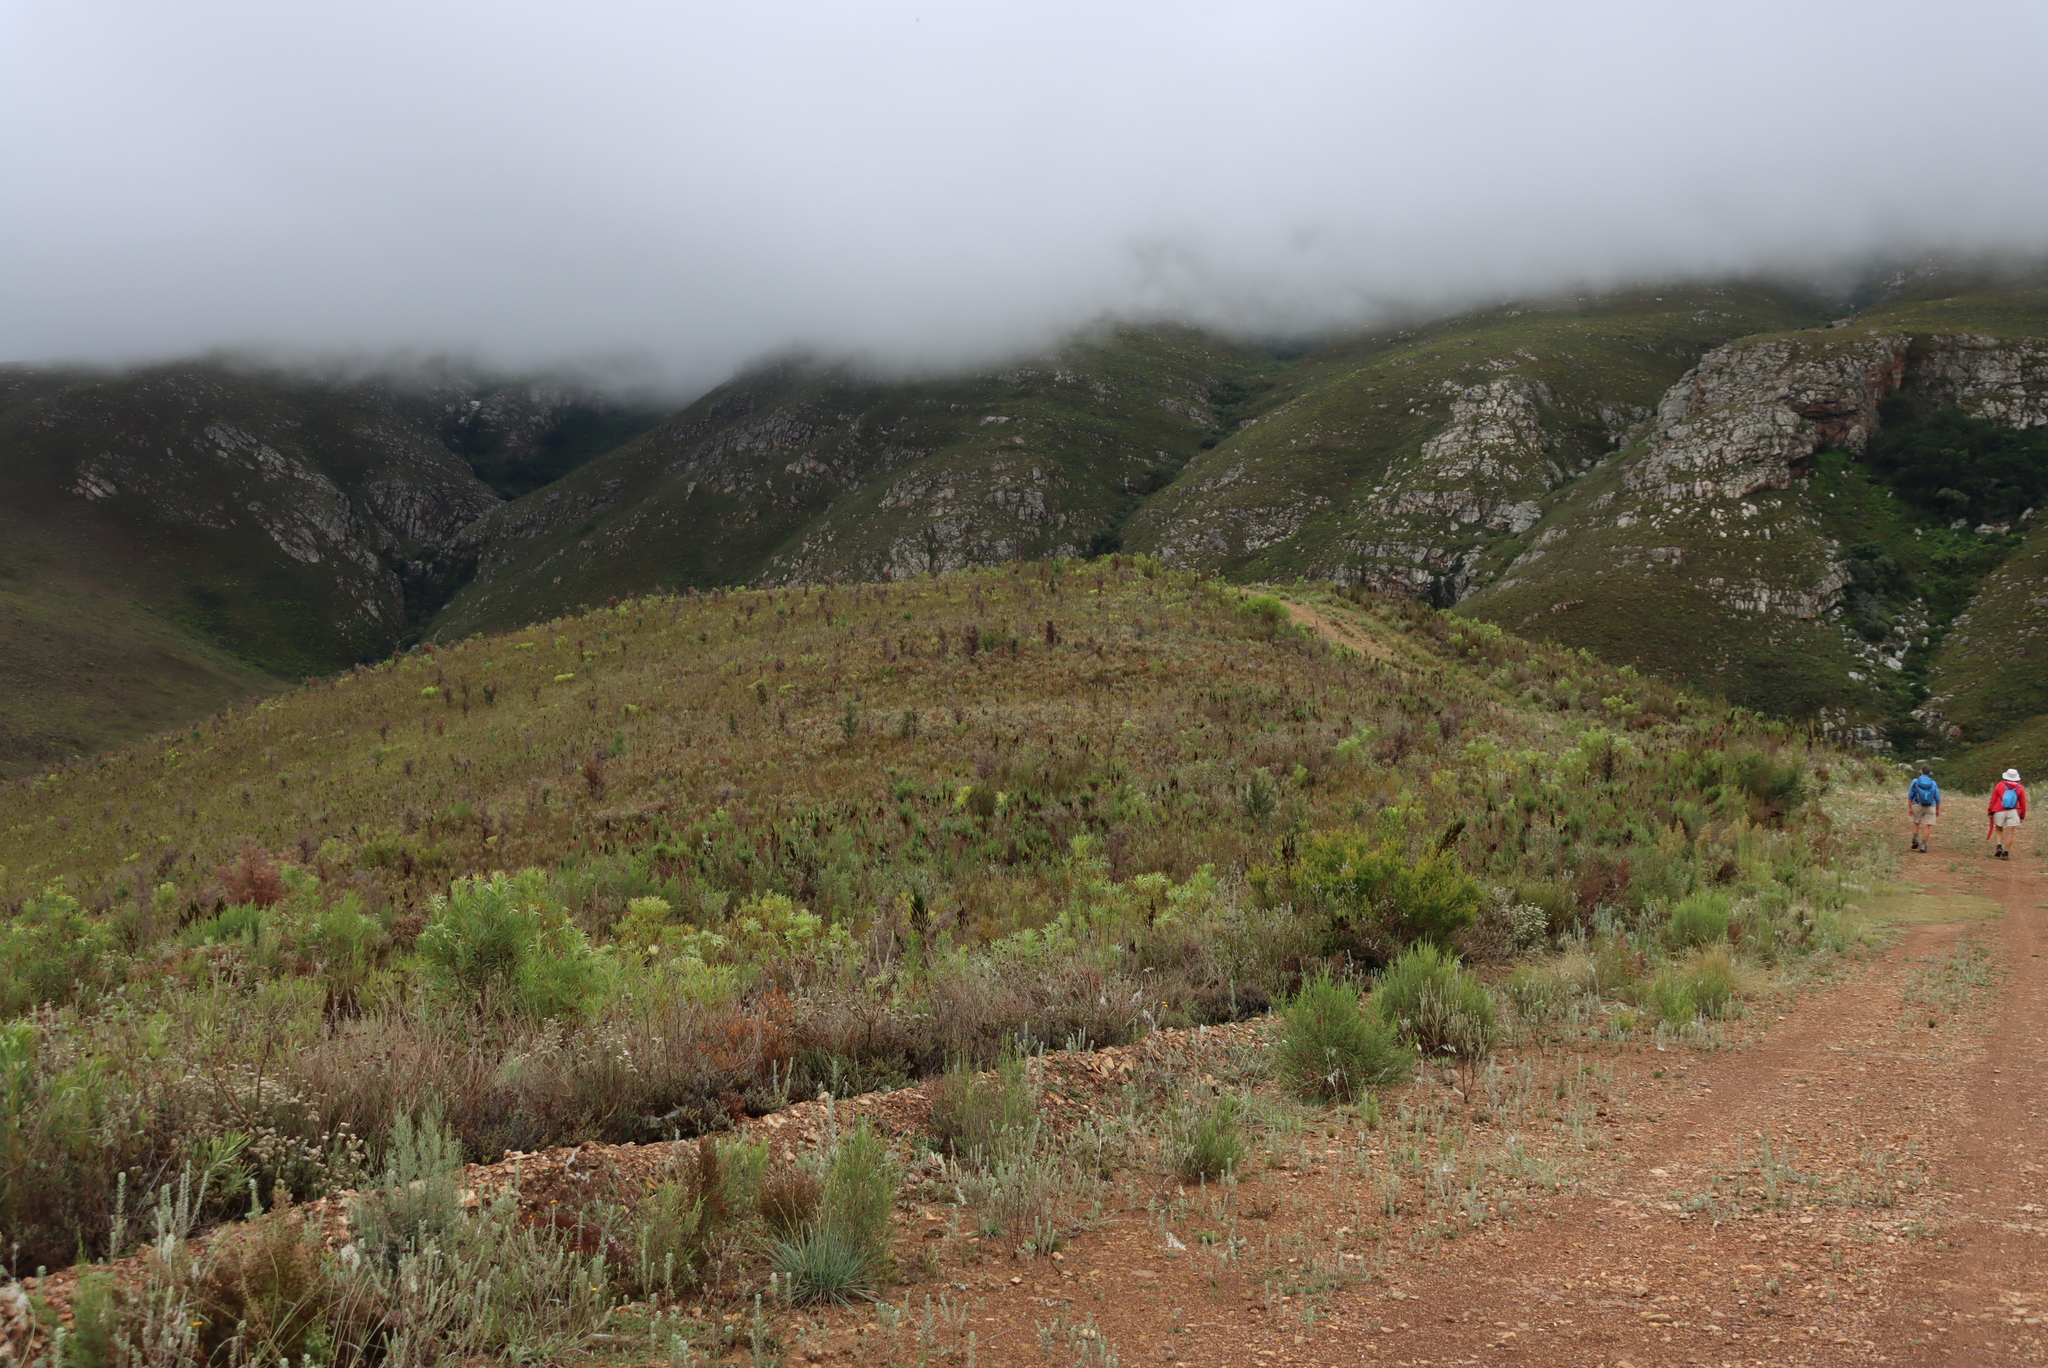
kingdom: Plantae
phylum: Tracheophyta
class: Magnoliopsida
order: Proteales
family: Proteaceae
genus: Hakea
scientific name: Hakea sericea
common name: Needle bush
